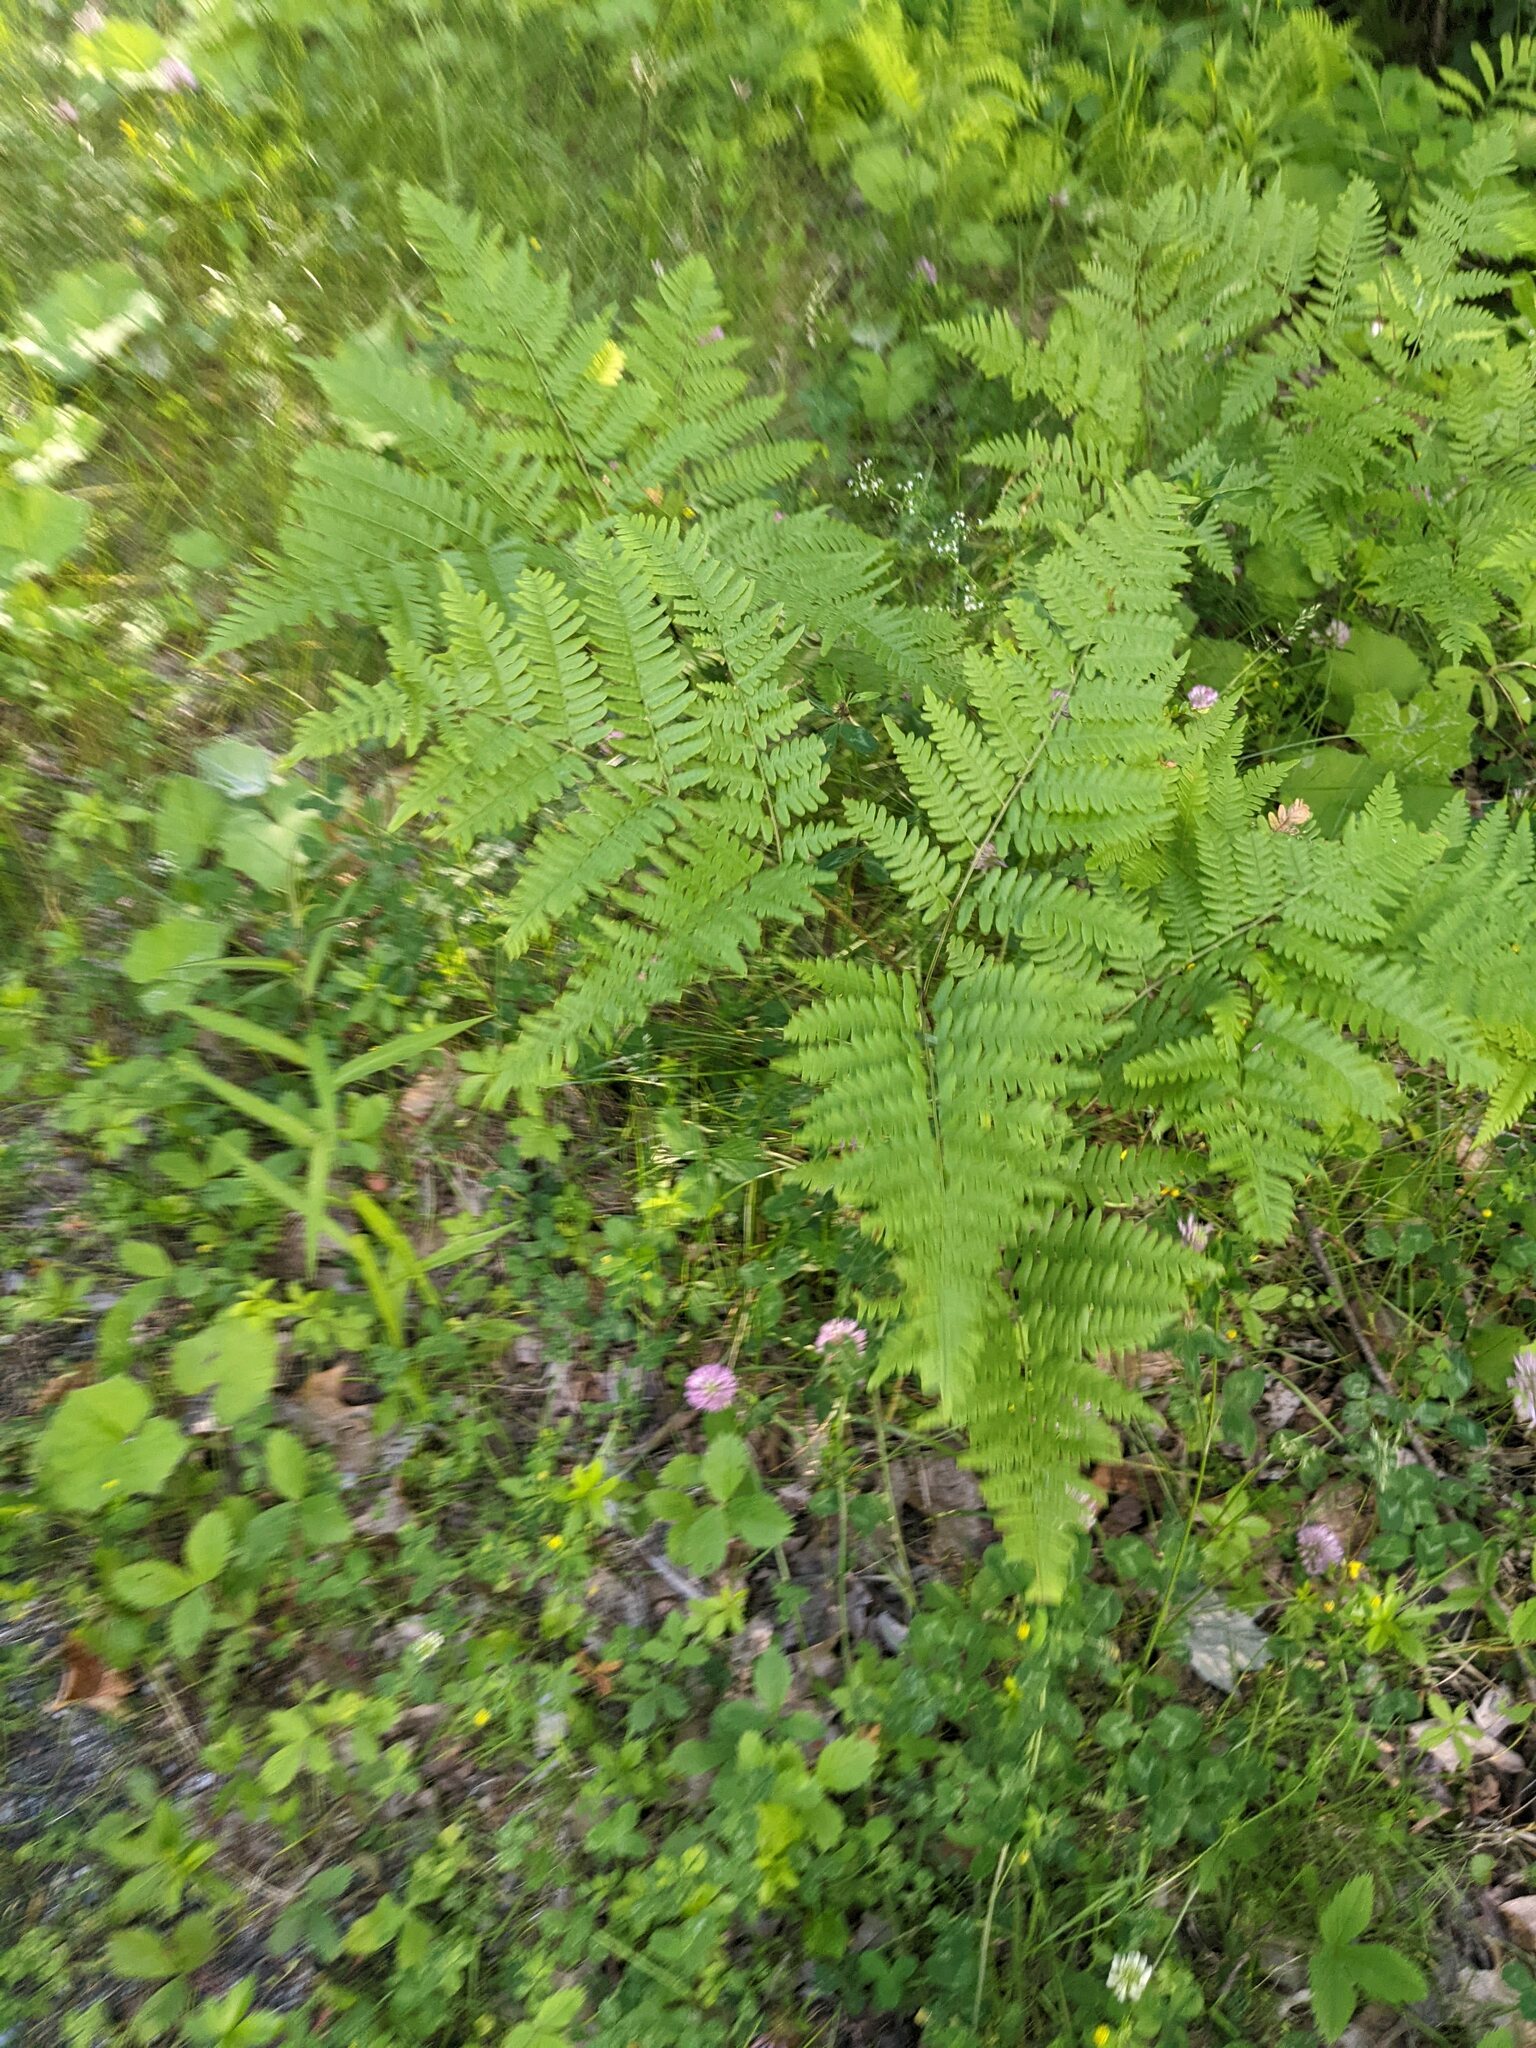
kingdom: Plantae
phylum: Tracheophyta
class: Polypodiopsida
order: Polypodiales
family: Dennstaedtiaceae
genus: Pteridium
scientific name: Pteridium aquilinum
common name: Bracken
